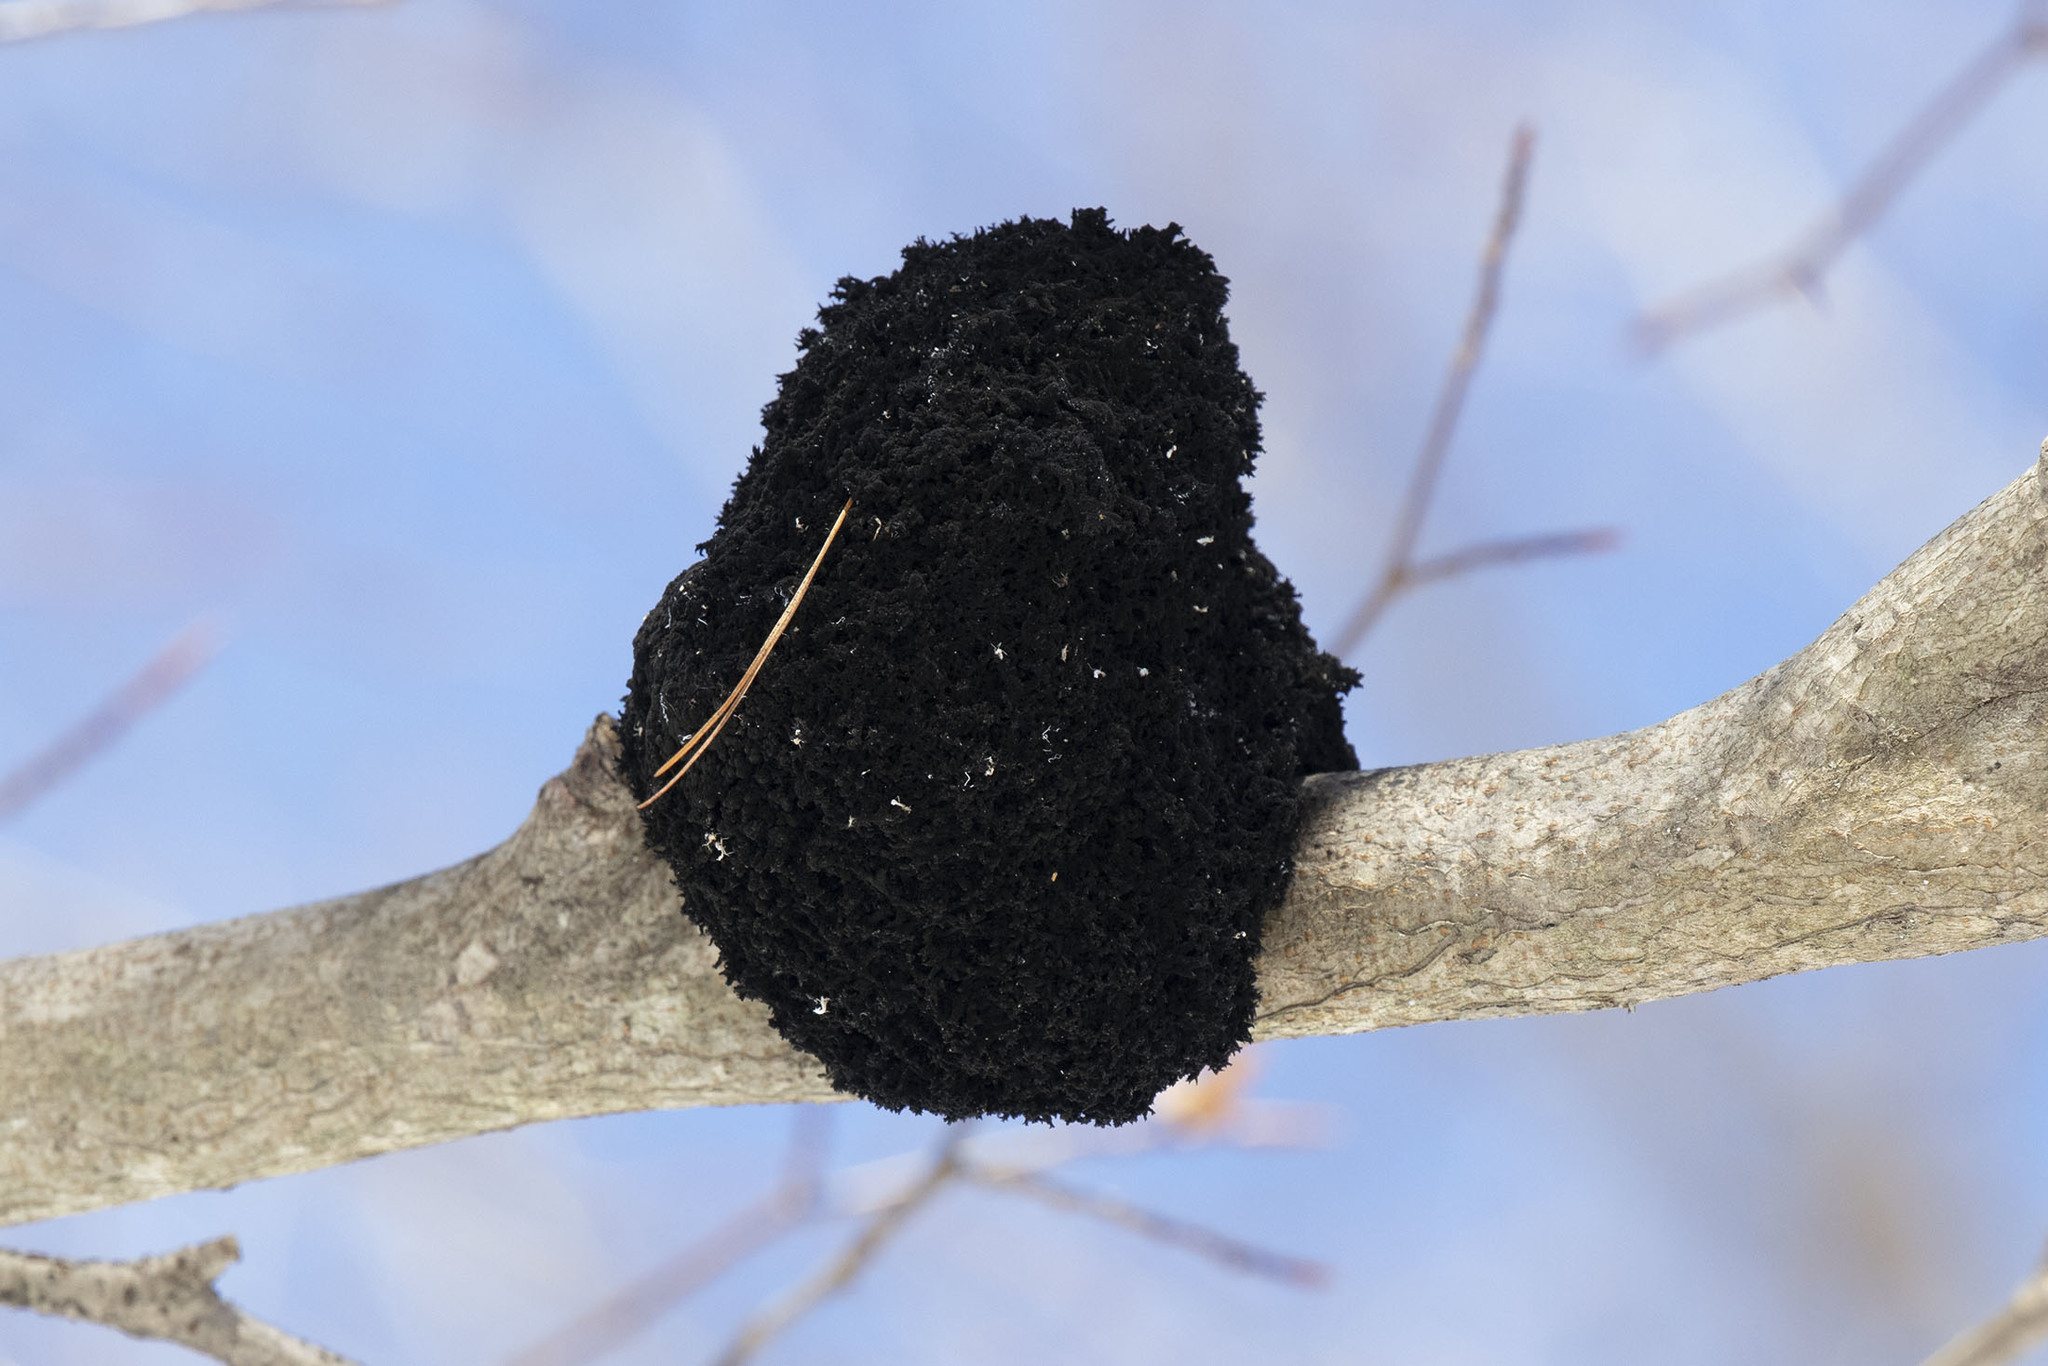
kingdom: Fungi
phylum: Ascomycota
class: Dothideomycetes
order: Capnodiales
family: Capnodiaceae
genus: Scorias
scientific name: Scorias spongiosa
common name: Black sooty mold
